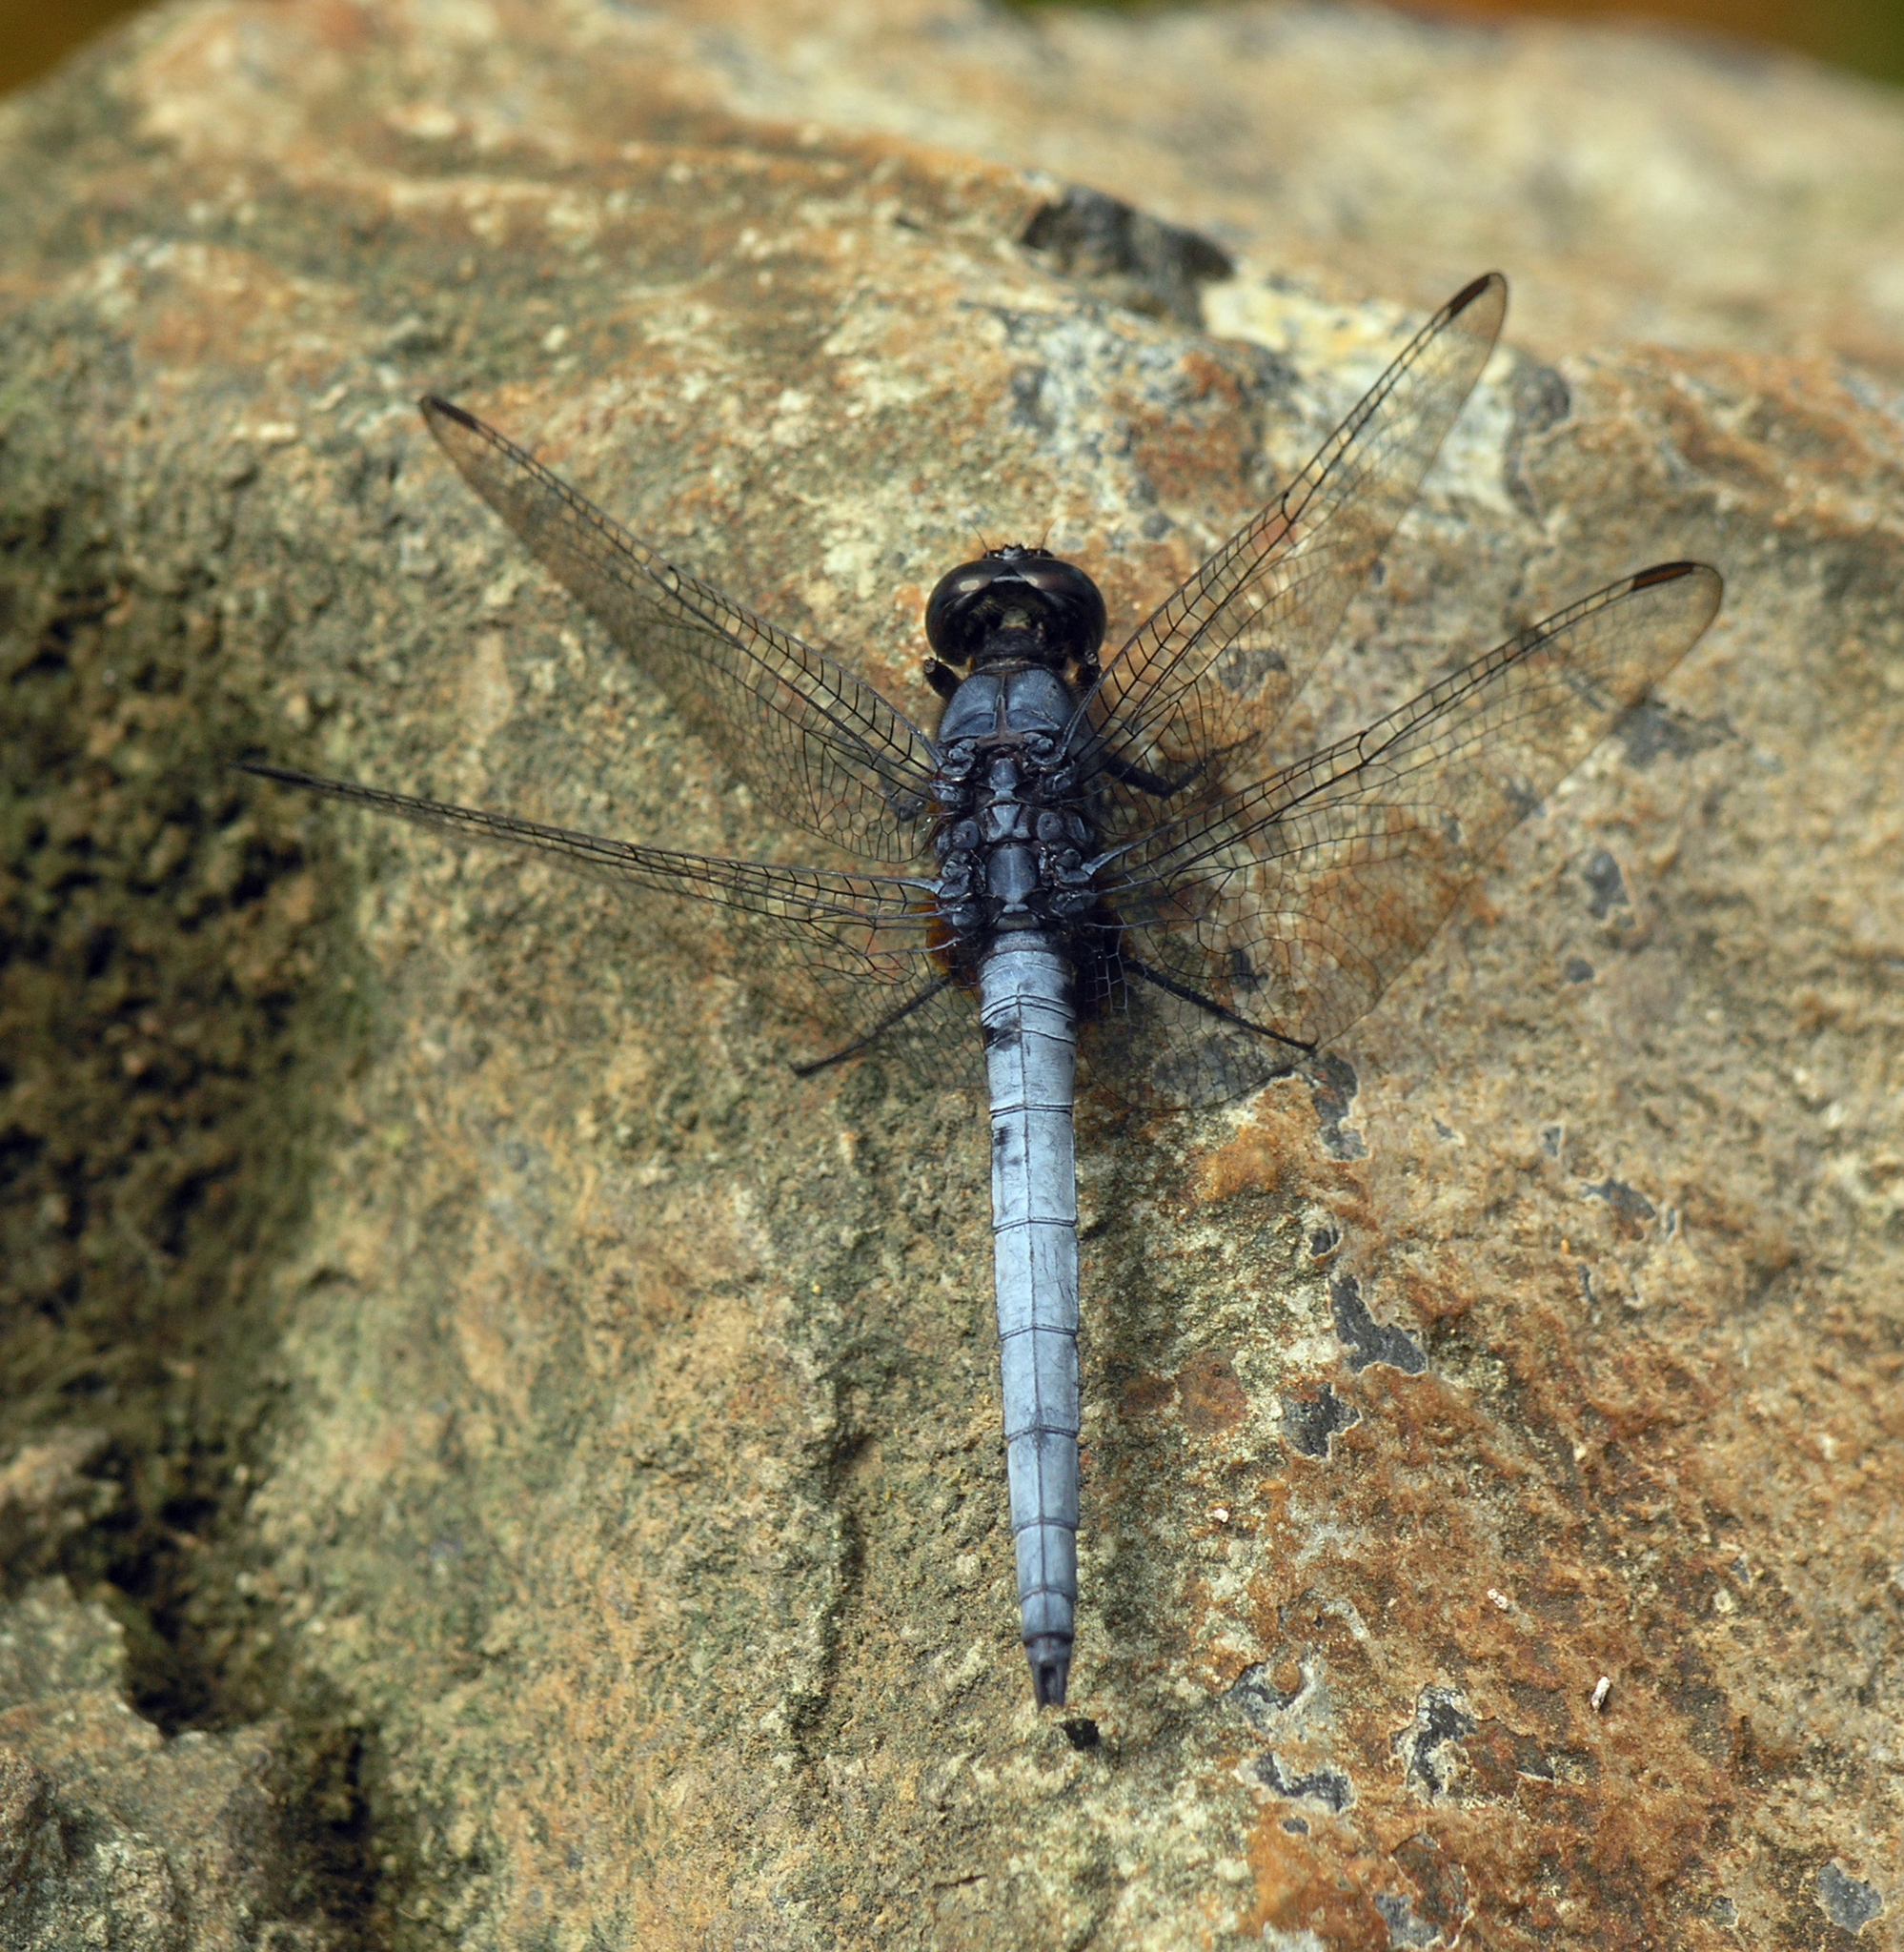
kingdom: Animalia
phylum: Arthropoda
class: Insecta
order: Odonata
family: Libellulidae
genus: Orthetrum
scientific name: Orthetrum glaucum
